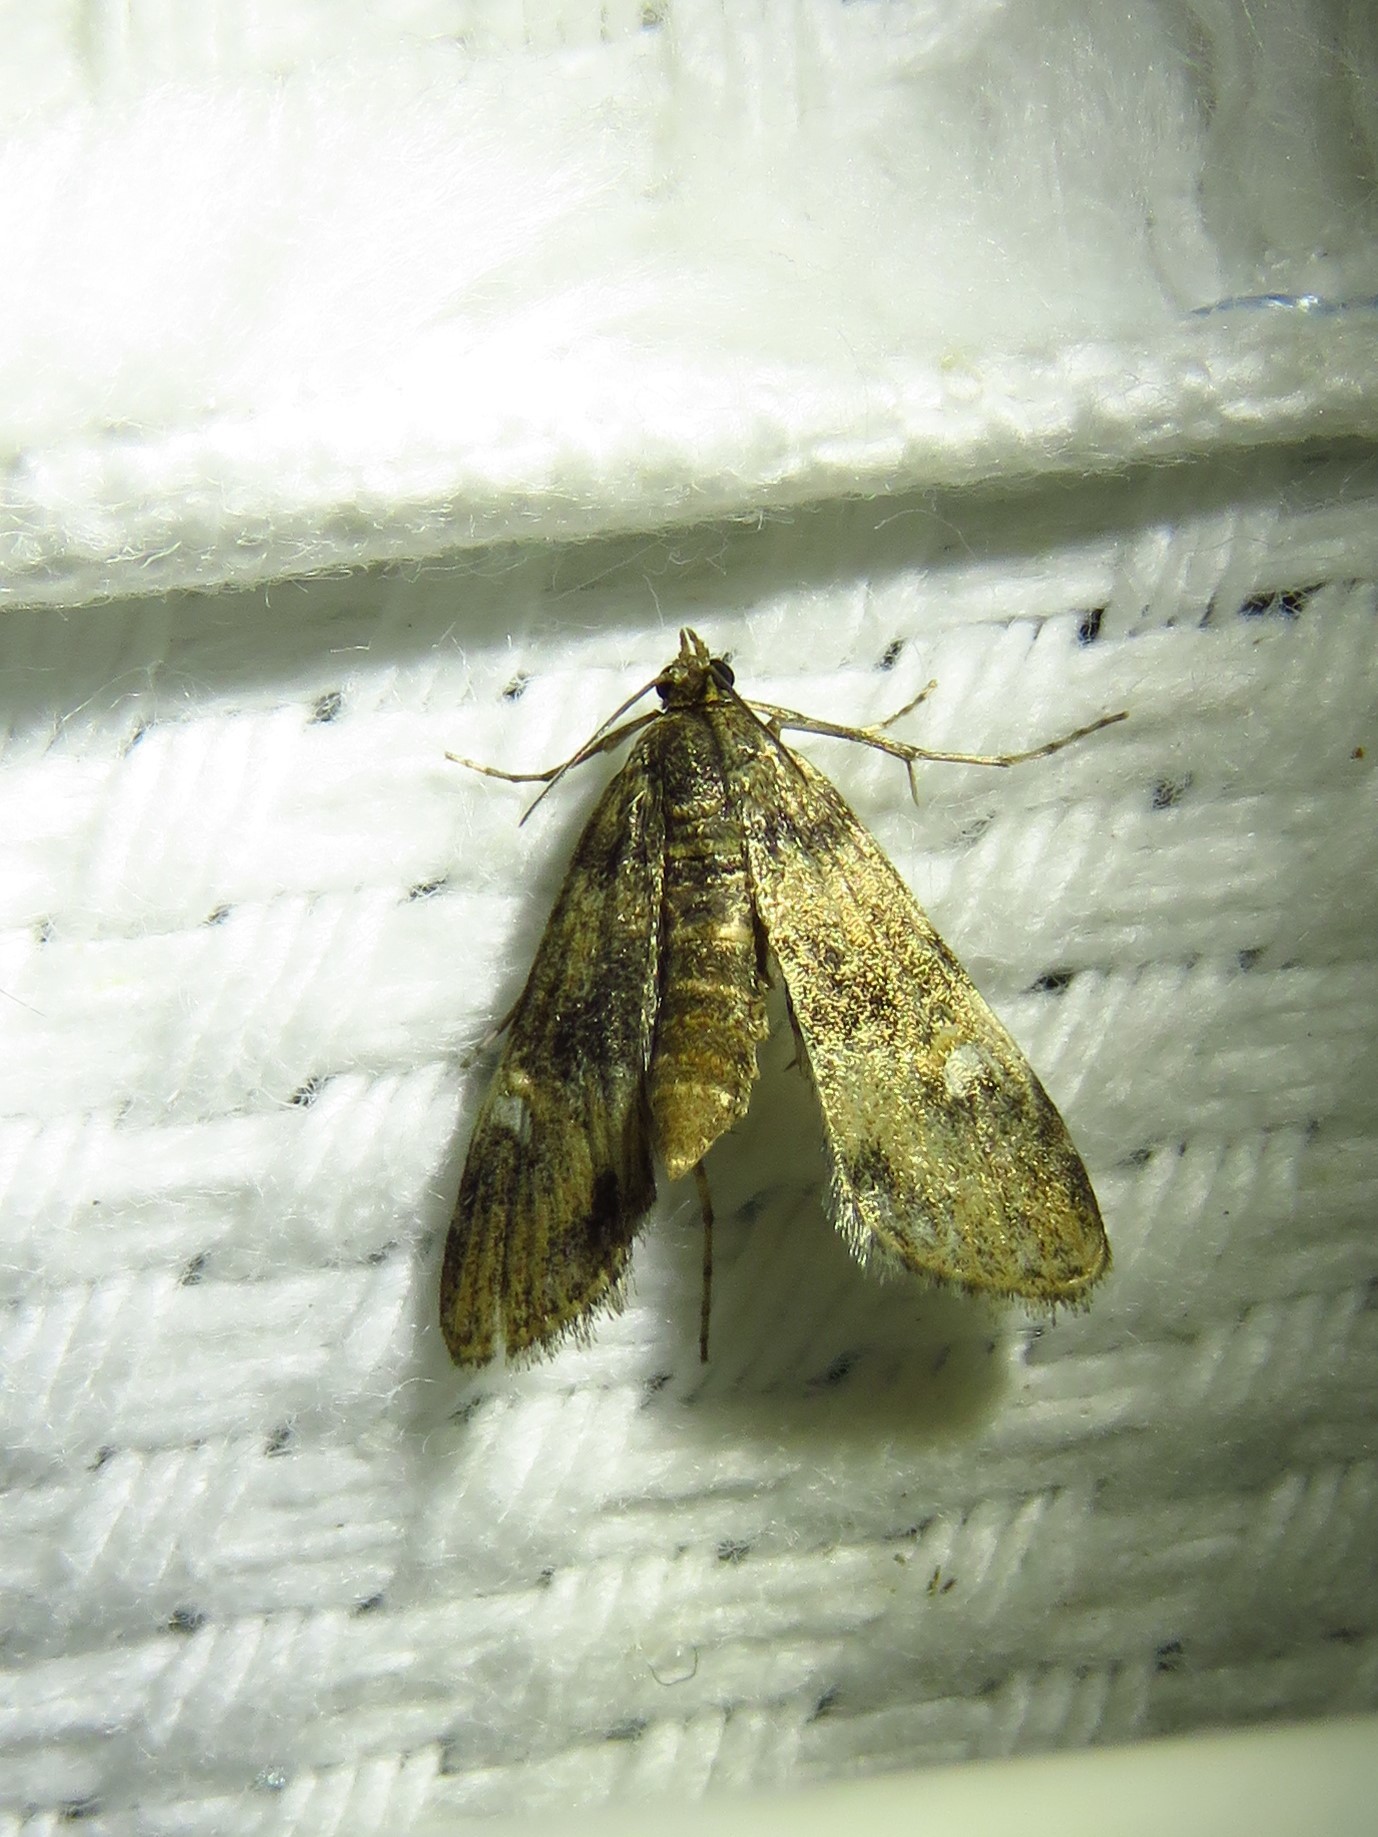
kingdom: Animalia
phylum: Arthropoda
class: Insecta
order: Lepidoptera
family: Crambidae
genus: Elophila
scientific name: Elophila obliteralis
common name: Waterlily leafcutter moth
